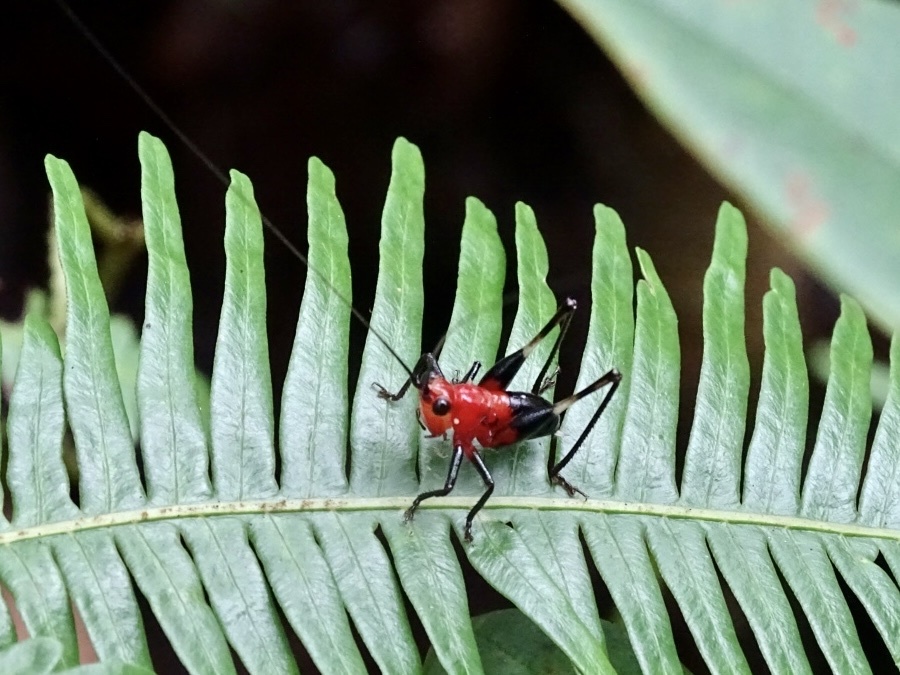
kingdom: Animalia
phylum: Arthropoda
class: Insecta
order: Orthoptera
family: Tettigoniidae
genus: Conocephalus
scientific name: Conocephalus melaenus
